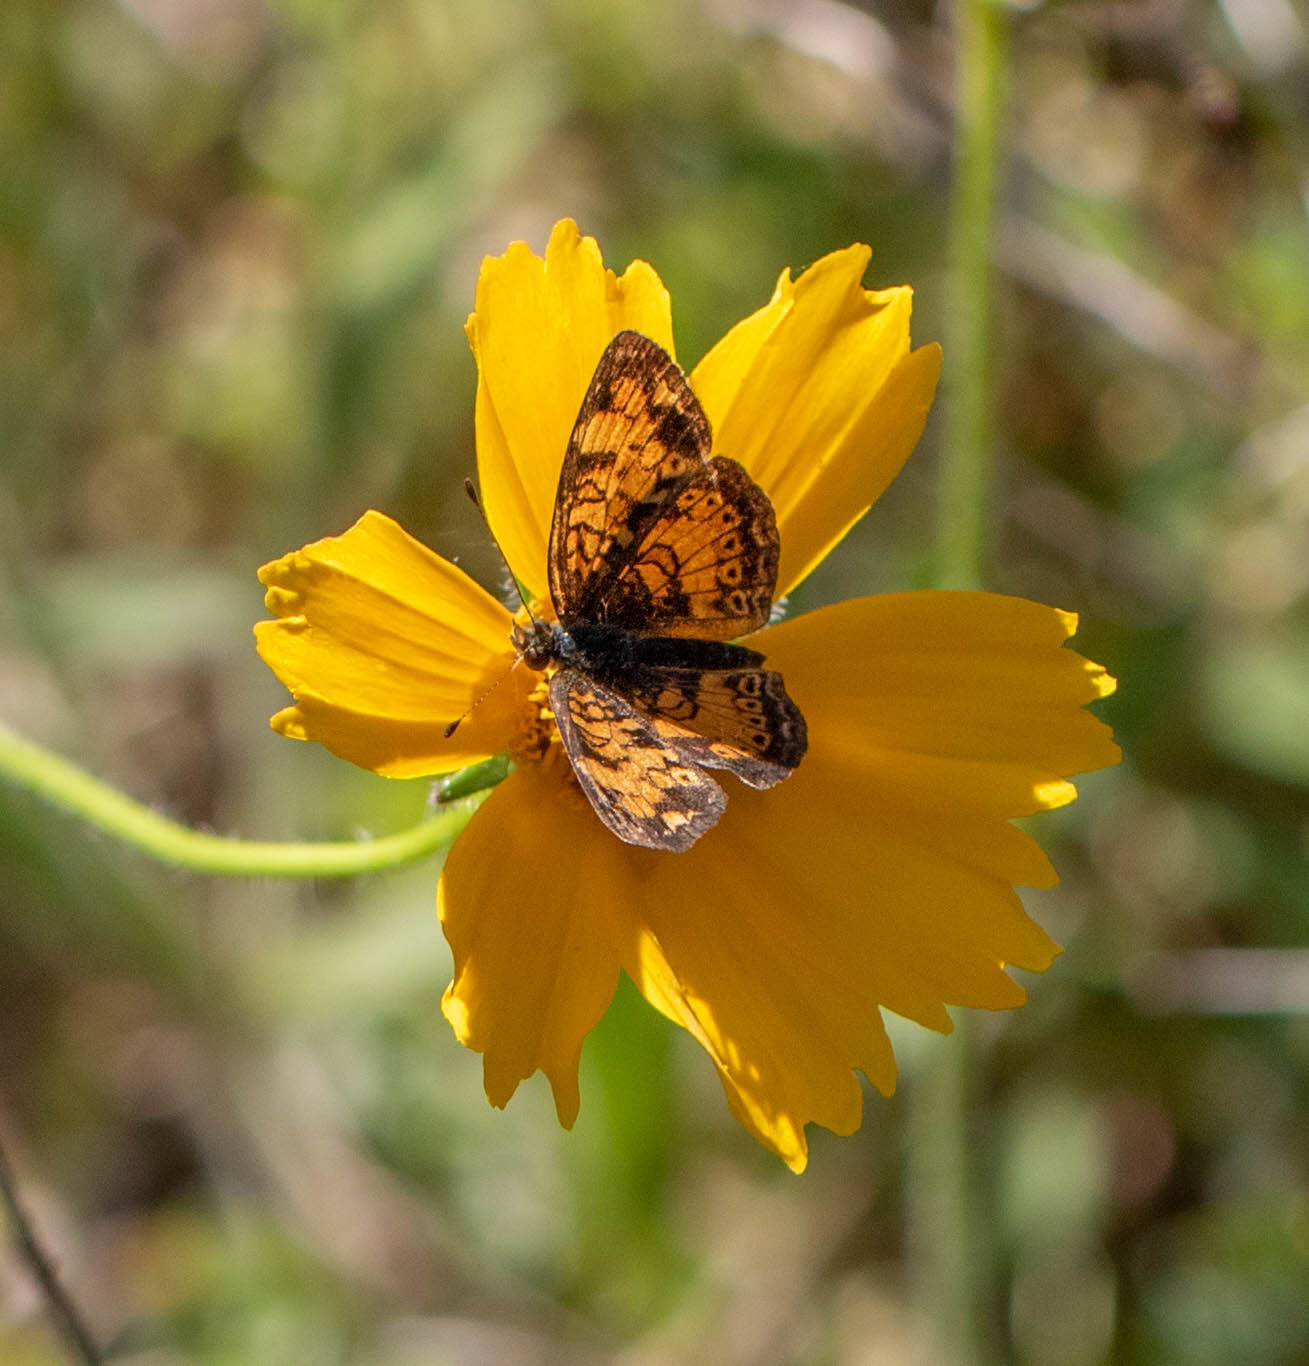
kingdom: Animalia
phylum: Arthropoda
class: Insecta
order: Lepidoptera
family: Nymphalidae
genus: Phyciodes
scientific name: Phyciodes tharos
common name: Pearl crescent
